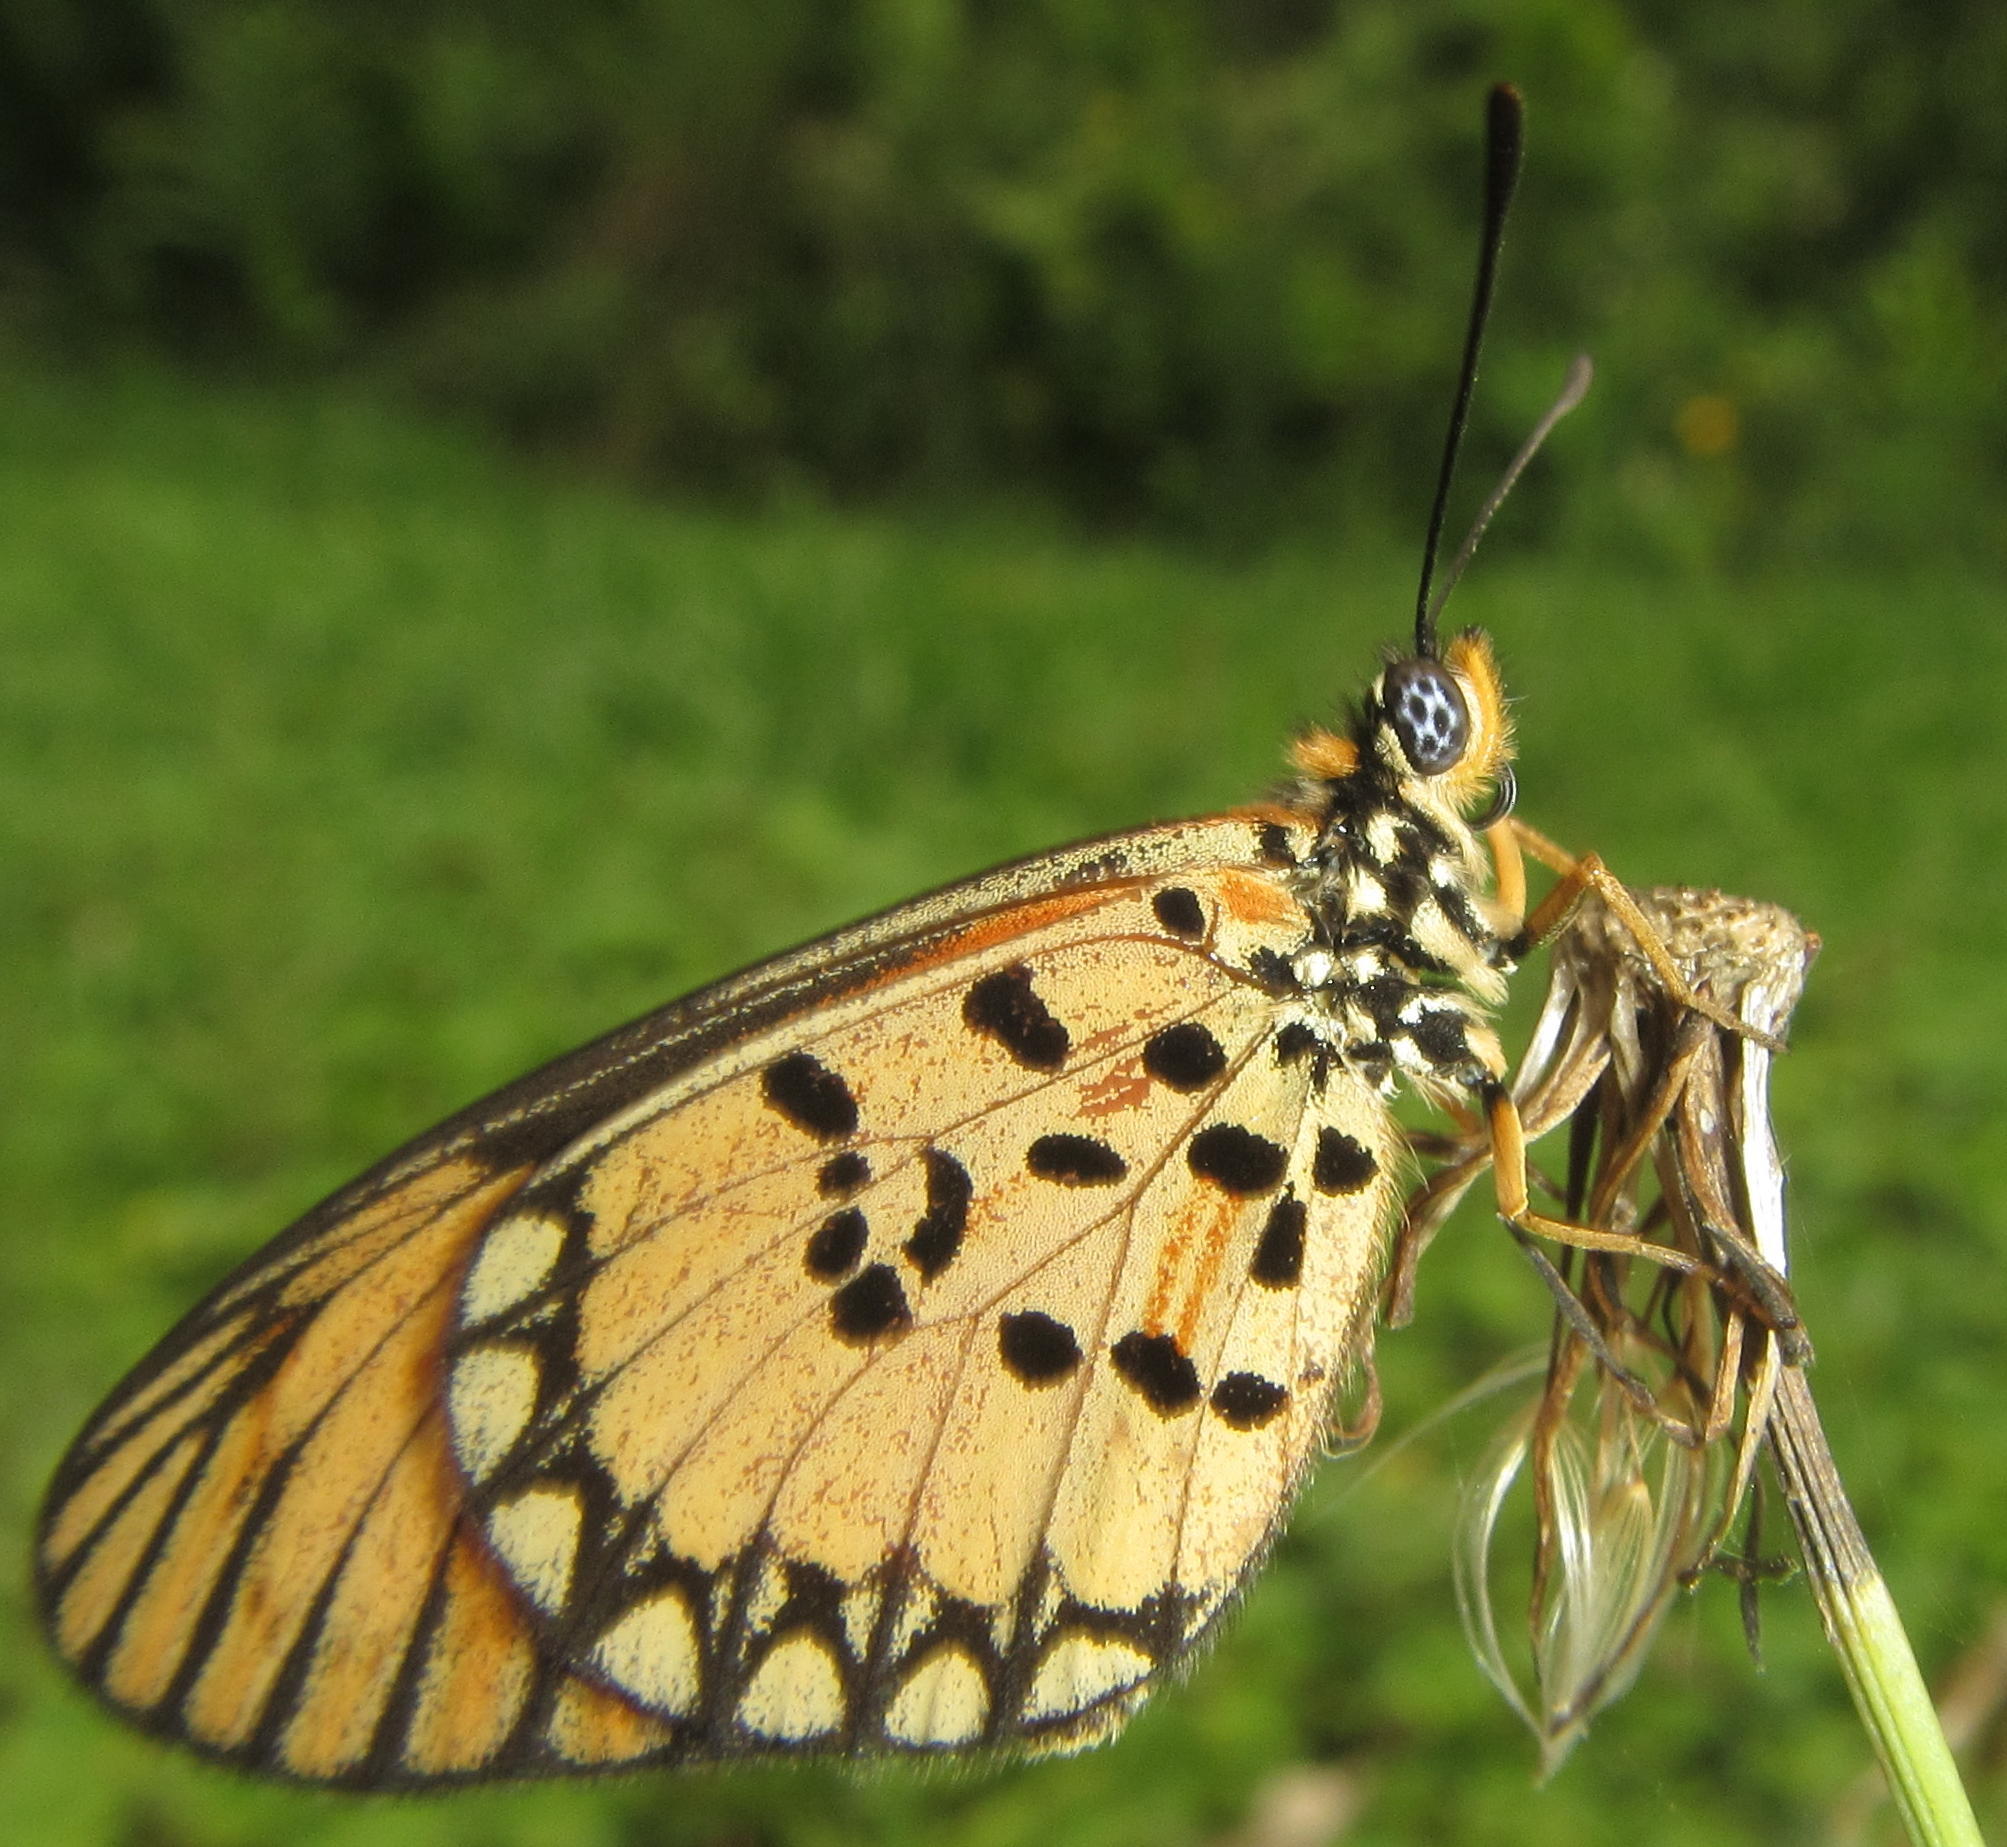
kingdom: Animalia
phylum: Arthropoda
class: Insecta
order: Lepidoptera
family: Nymphalidae
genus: Acraea
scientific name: Acraea Telchinia serena
